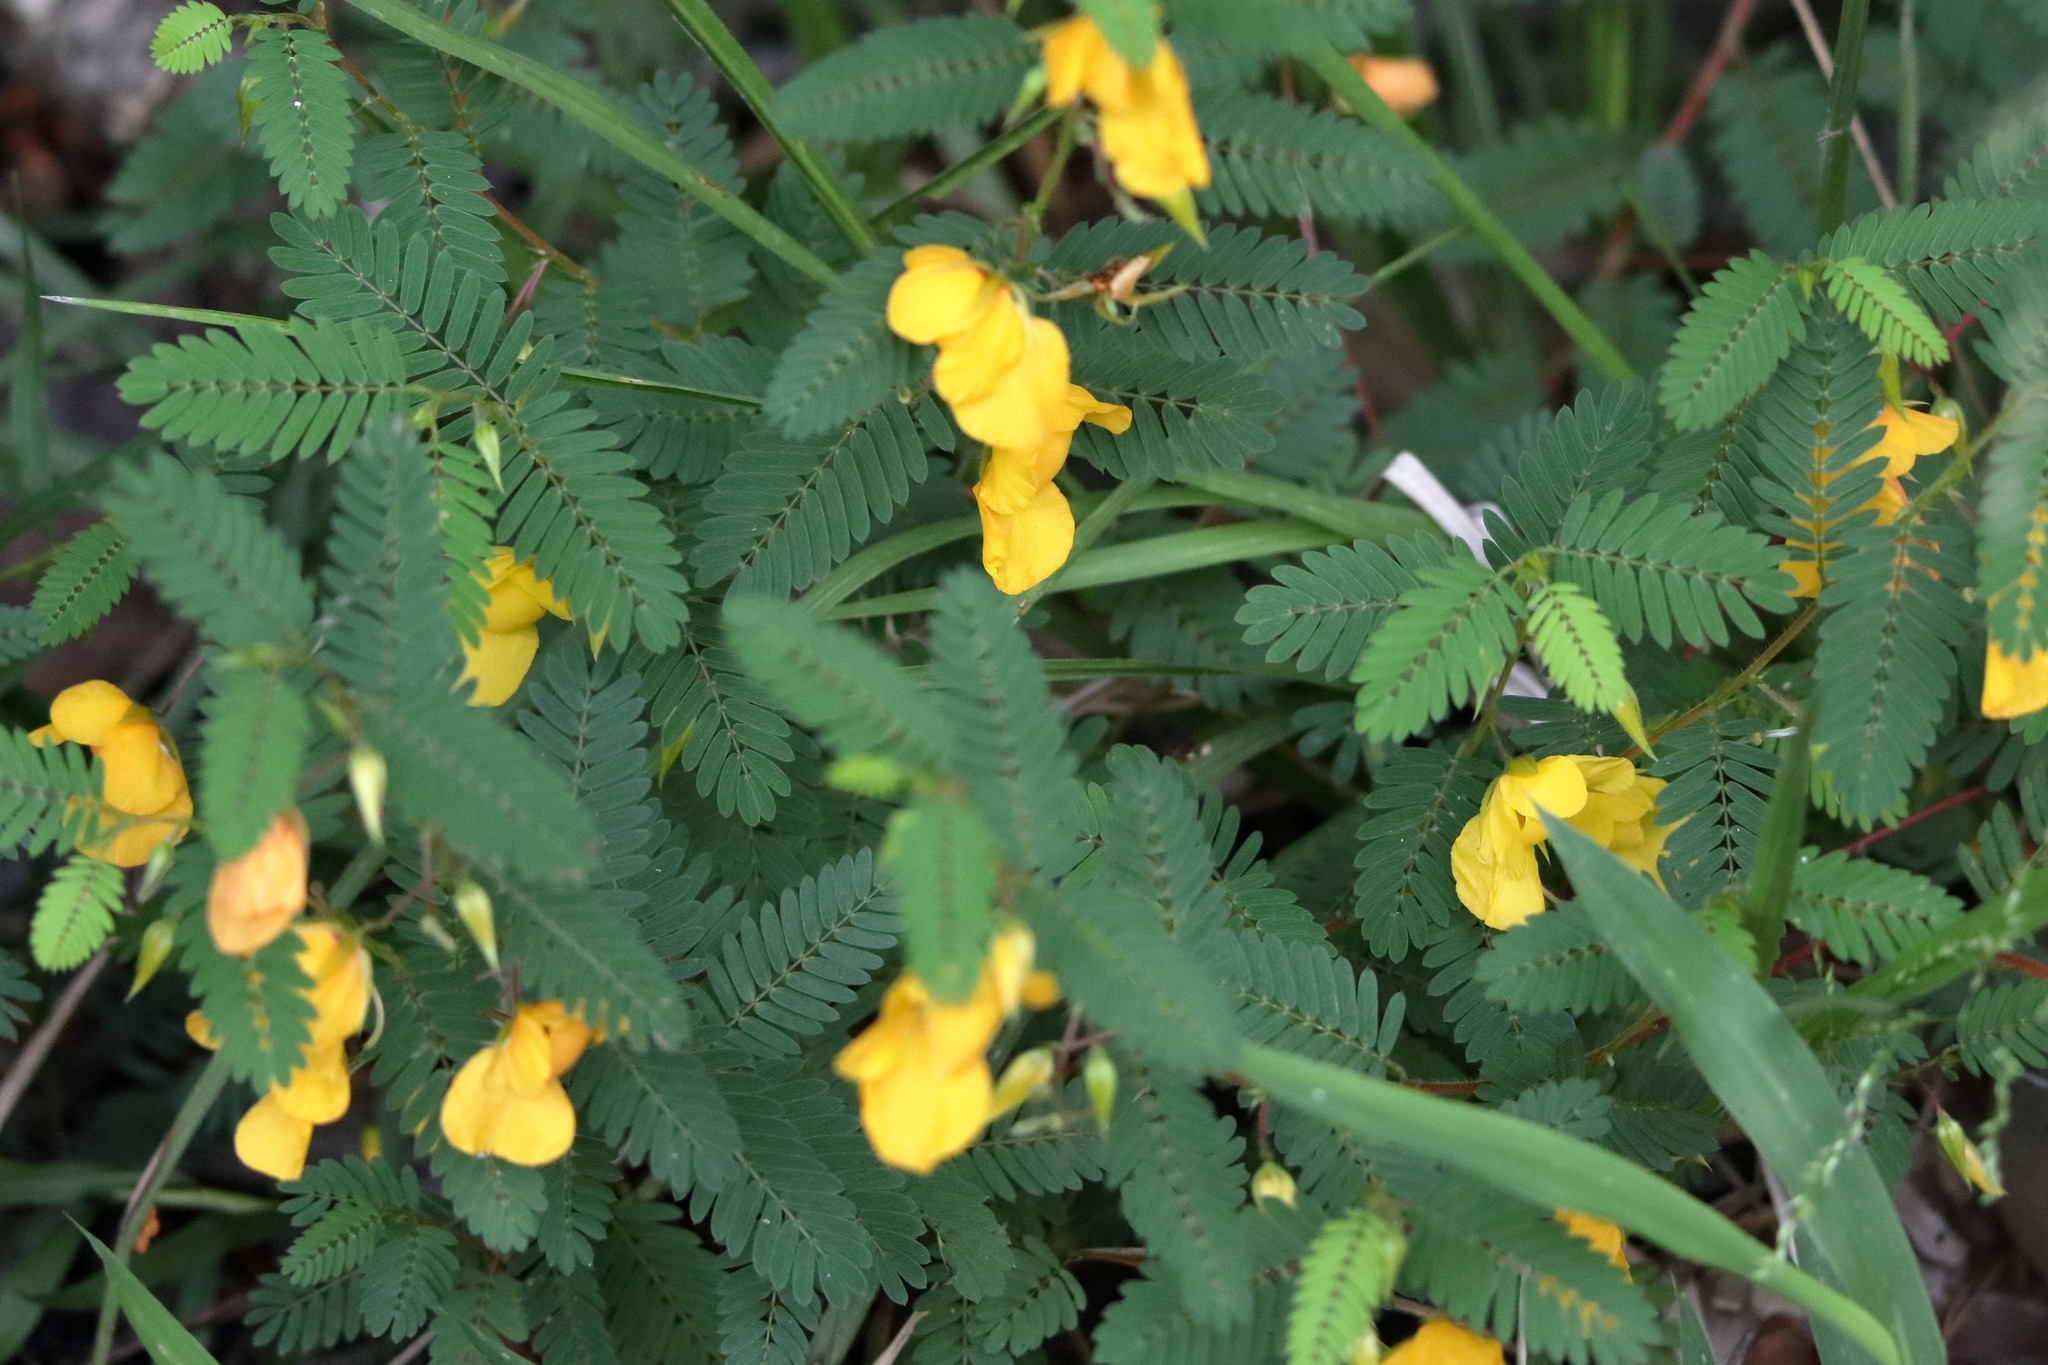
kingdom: Plantae
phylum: Tracheophyta
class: Magnoliopsida
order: Fabales
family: Fabaceae
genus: Chamaecrista
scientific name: Chamaecrista fasciculata
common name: Golden cassia
